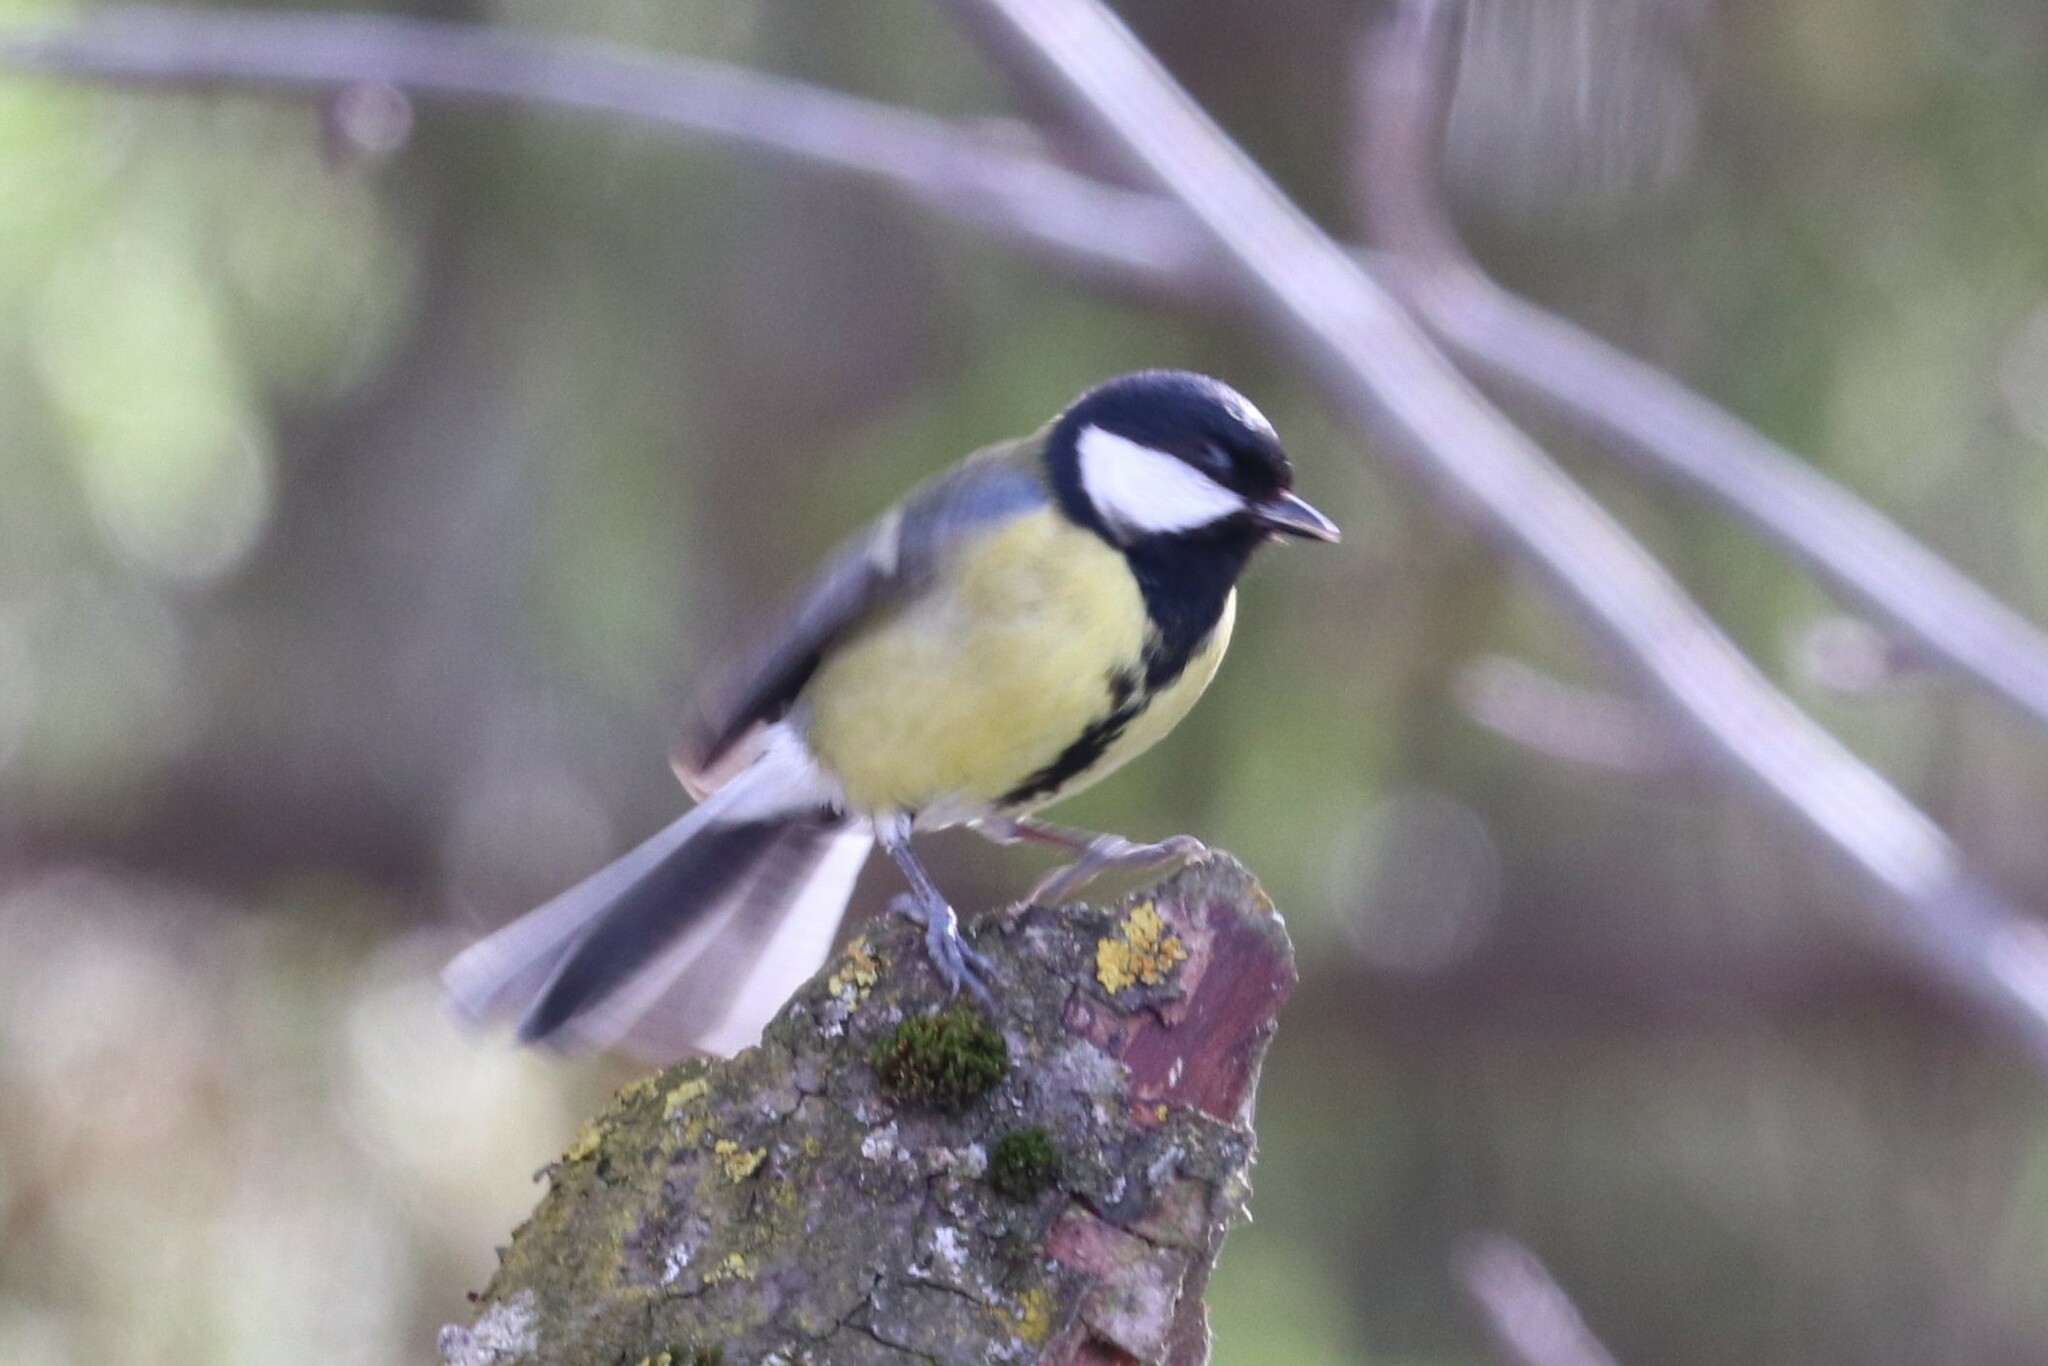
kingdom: Animalia
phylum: Chordata
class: Aves
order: Passeriformes
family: Paridae
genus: Parus
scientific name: Parus major
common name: Great tit
